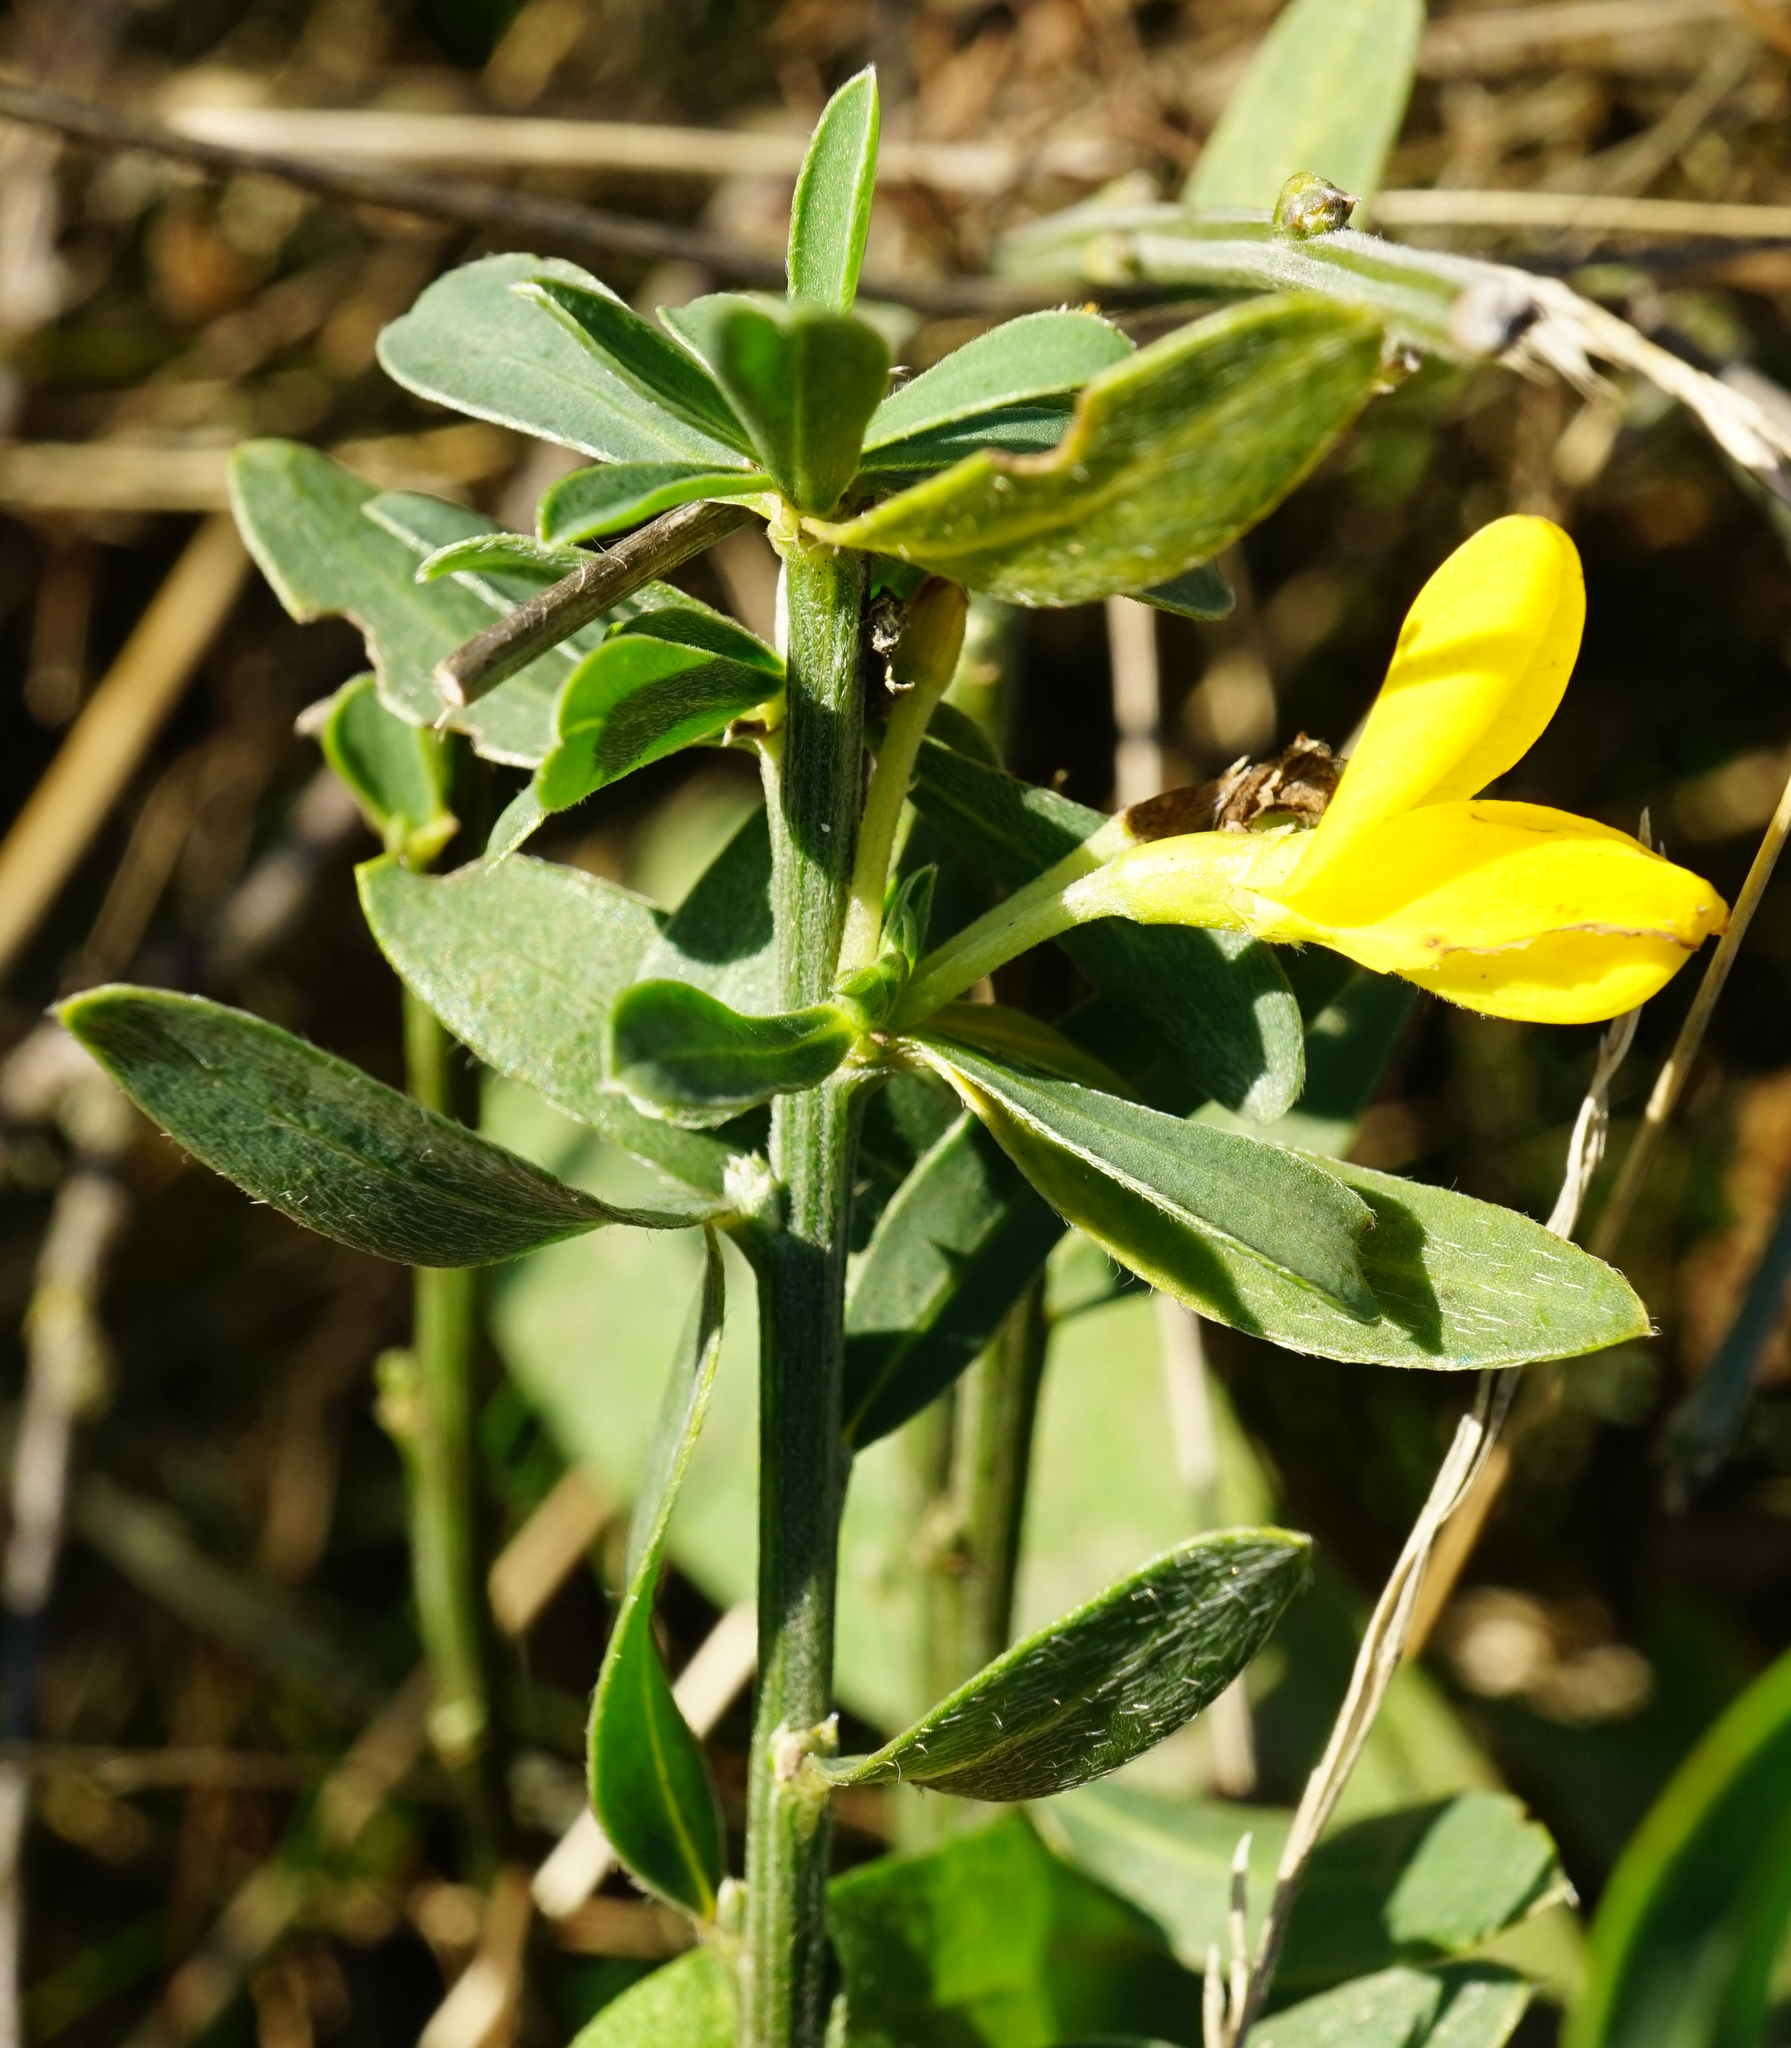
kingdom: Plantae
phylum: Tracheophyta
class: Magnoliopsida
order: Fabales
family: Fabaceae
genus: Cytisus
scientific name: Cytisus procumbens
